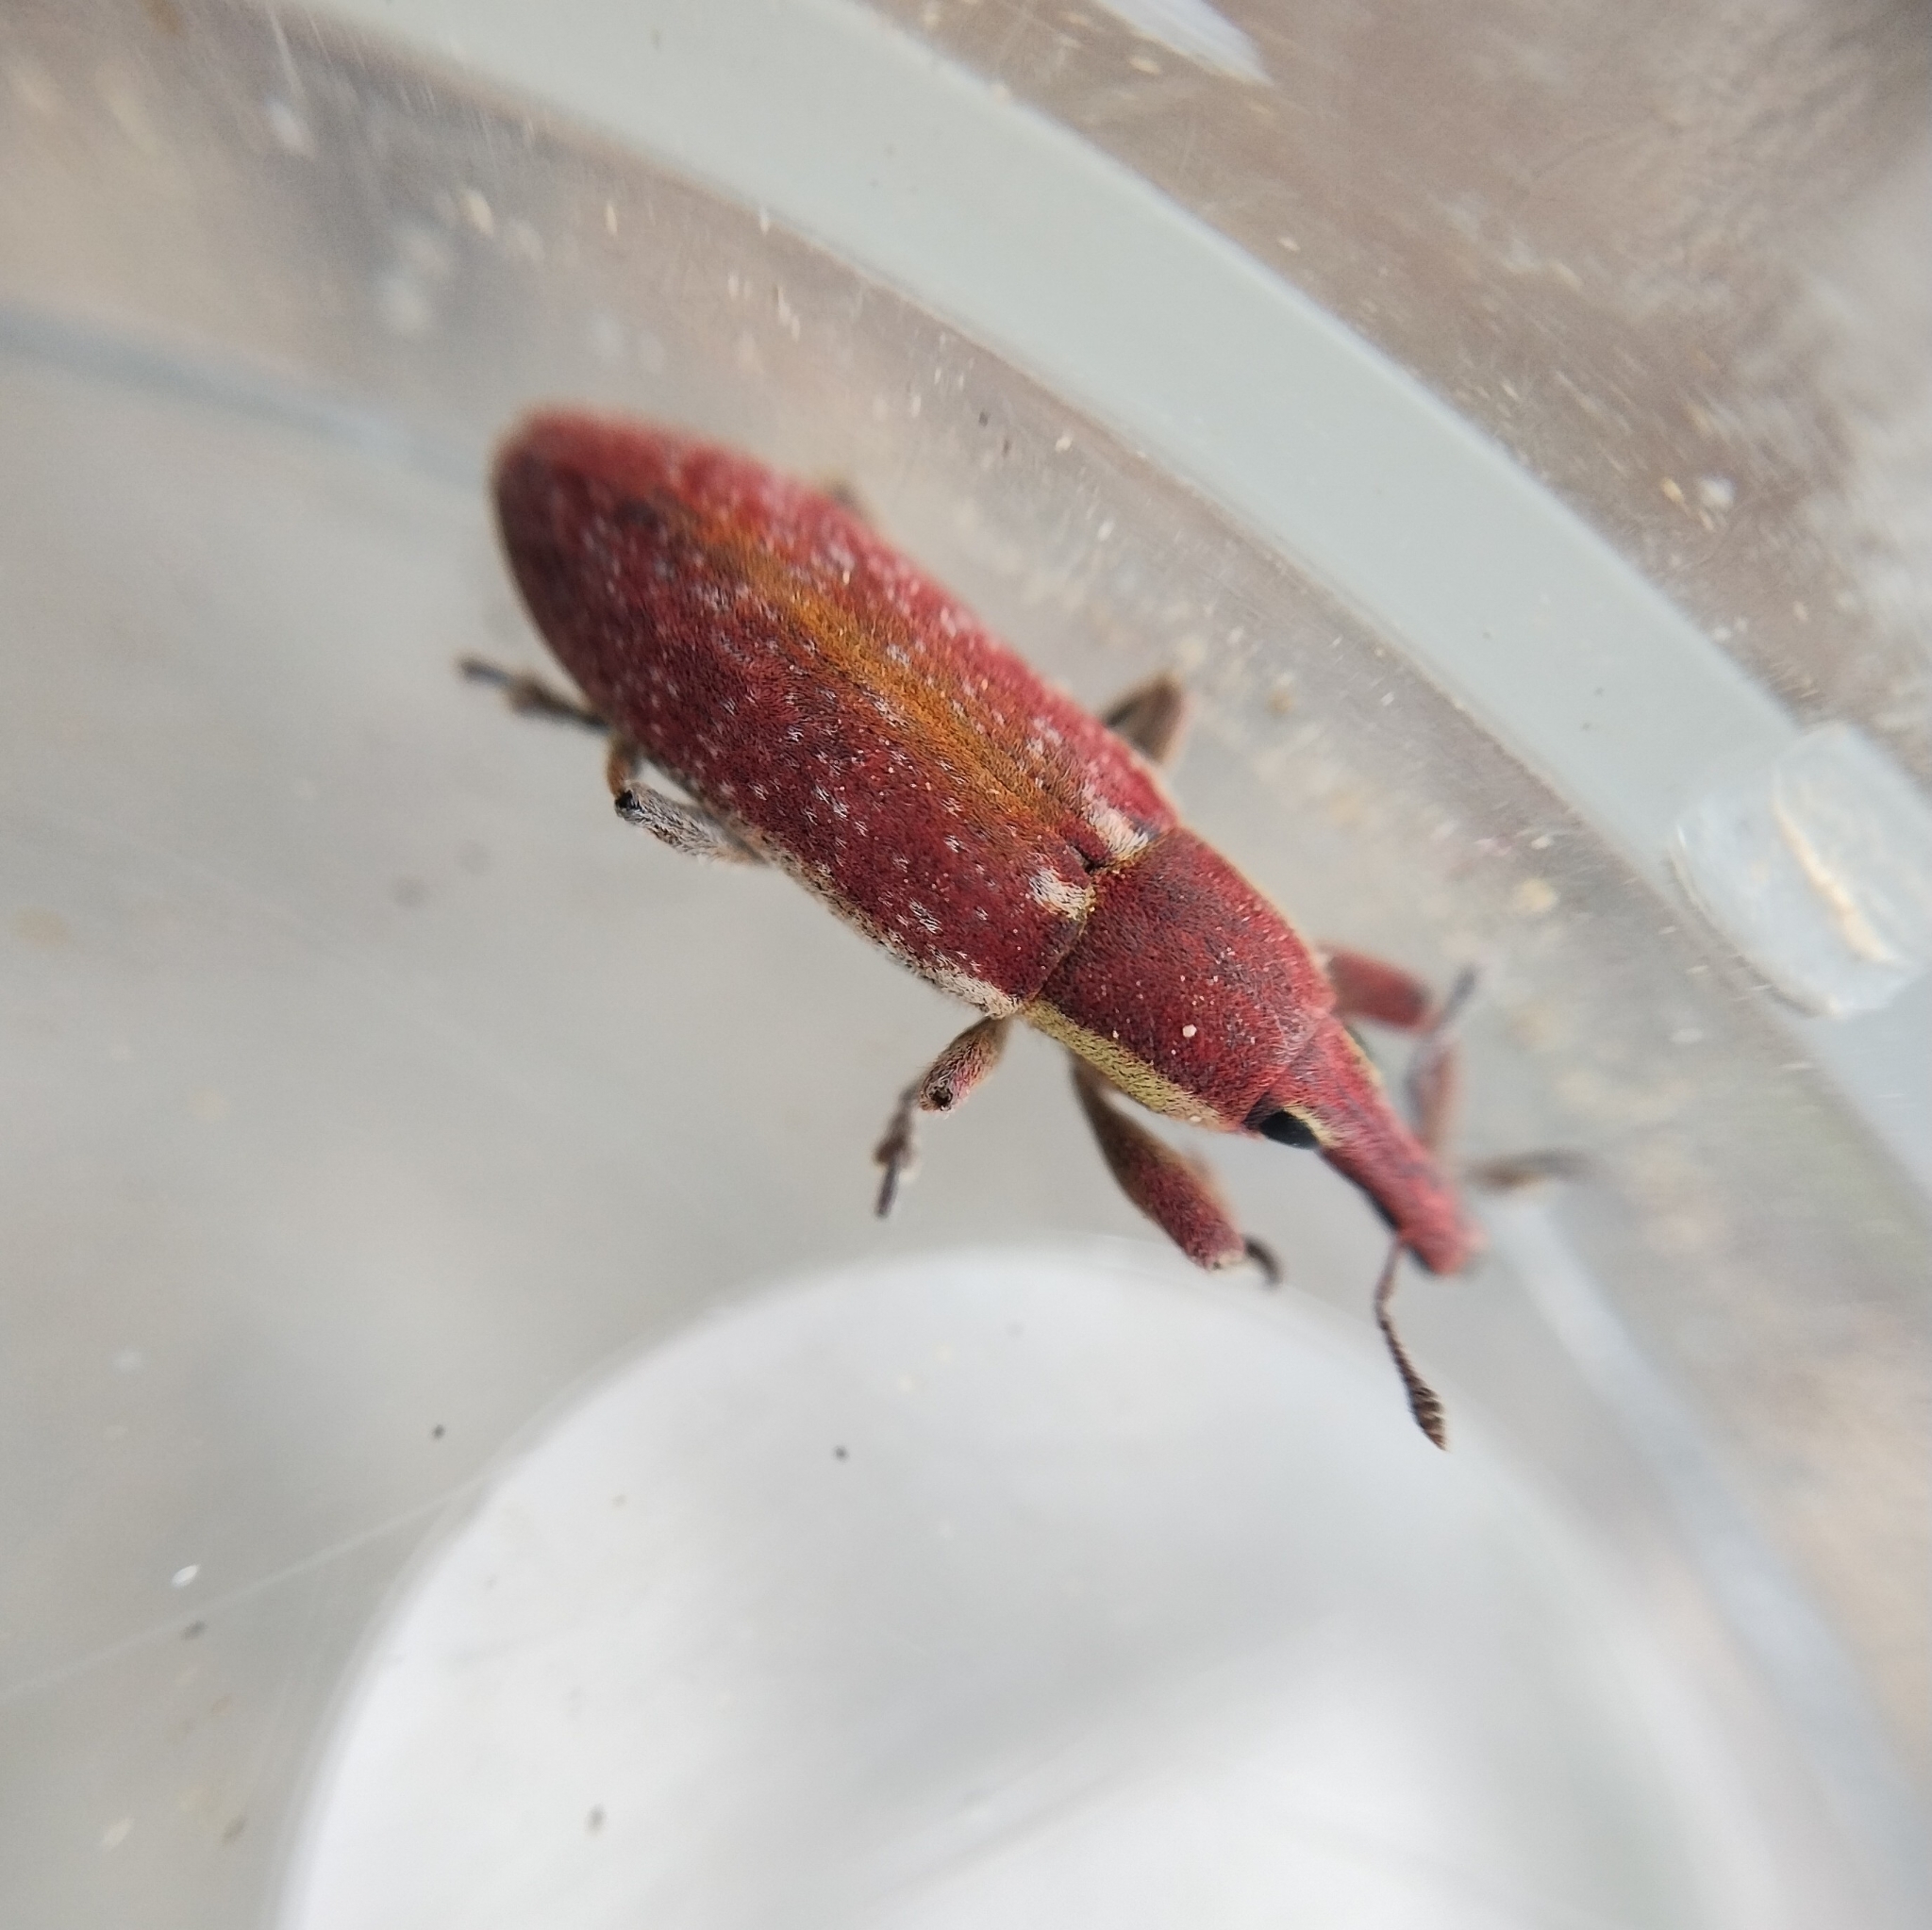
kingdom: Animalia
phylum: Arthropoda
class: Insecta
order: Coleoptera
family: Curculionidae
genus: Lixus
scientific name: Lixus vilis
